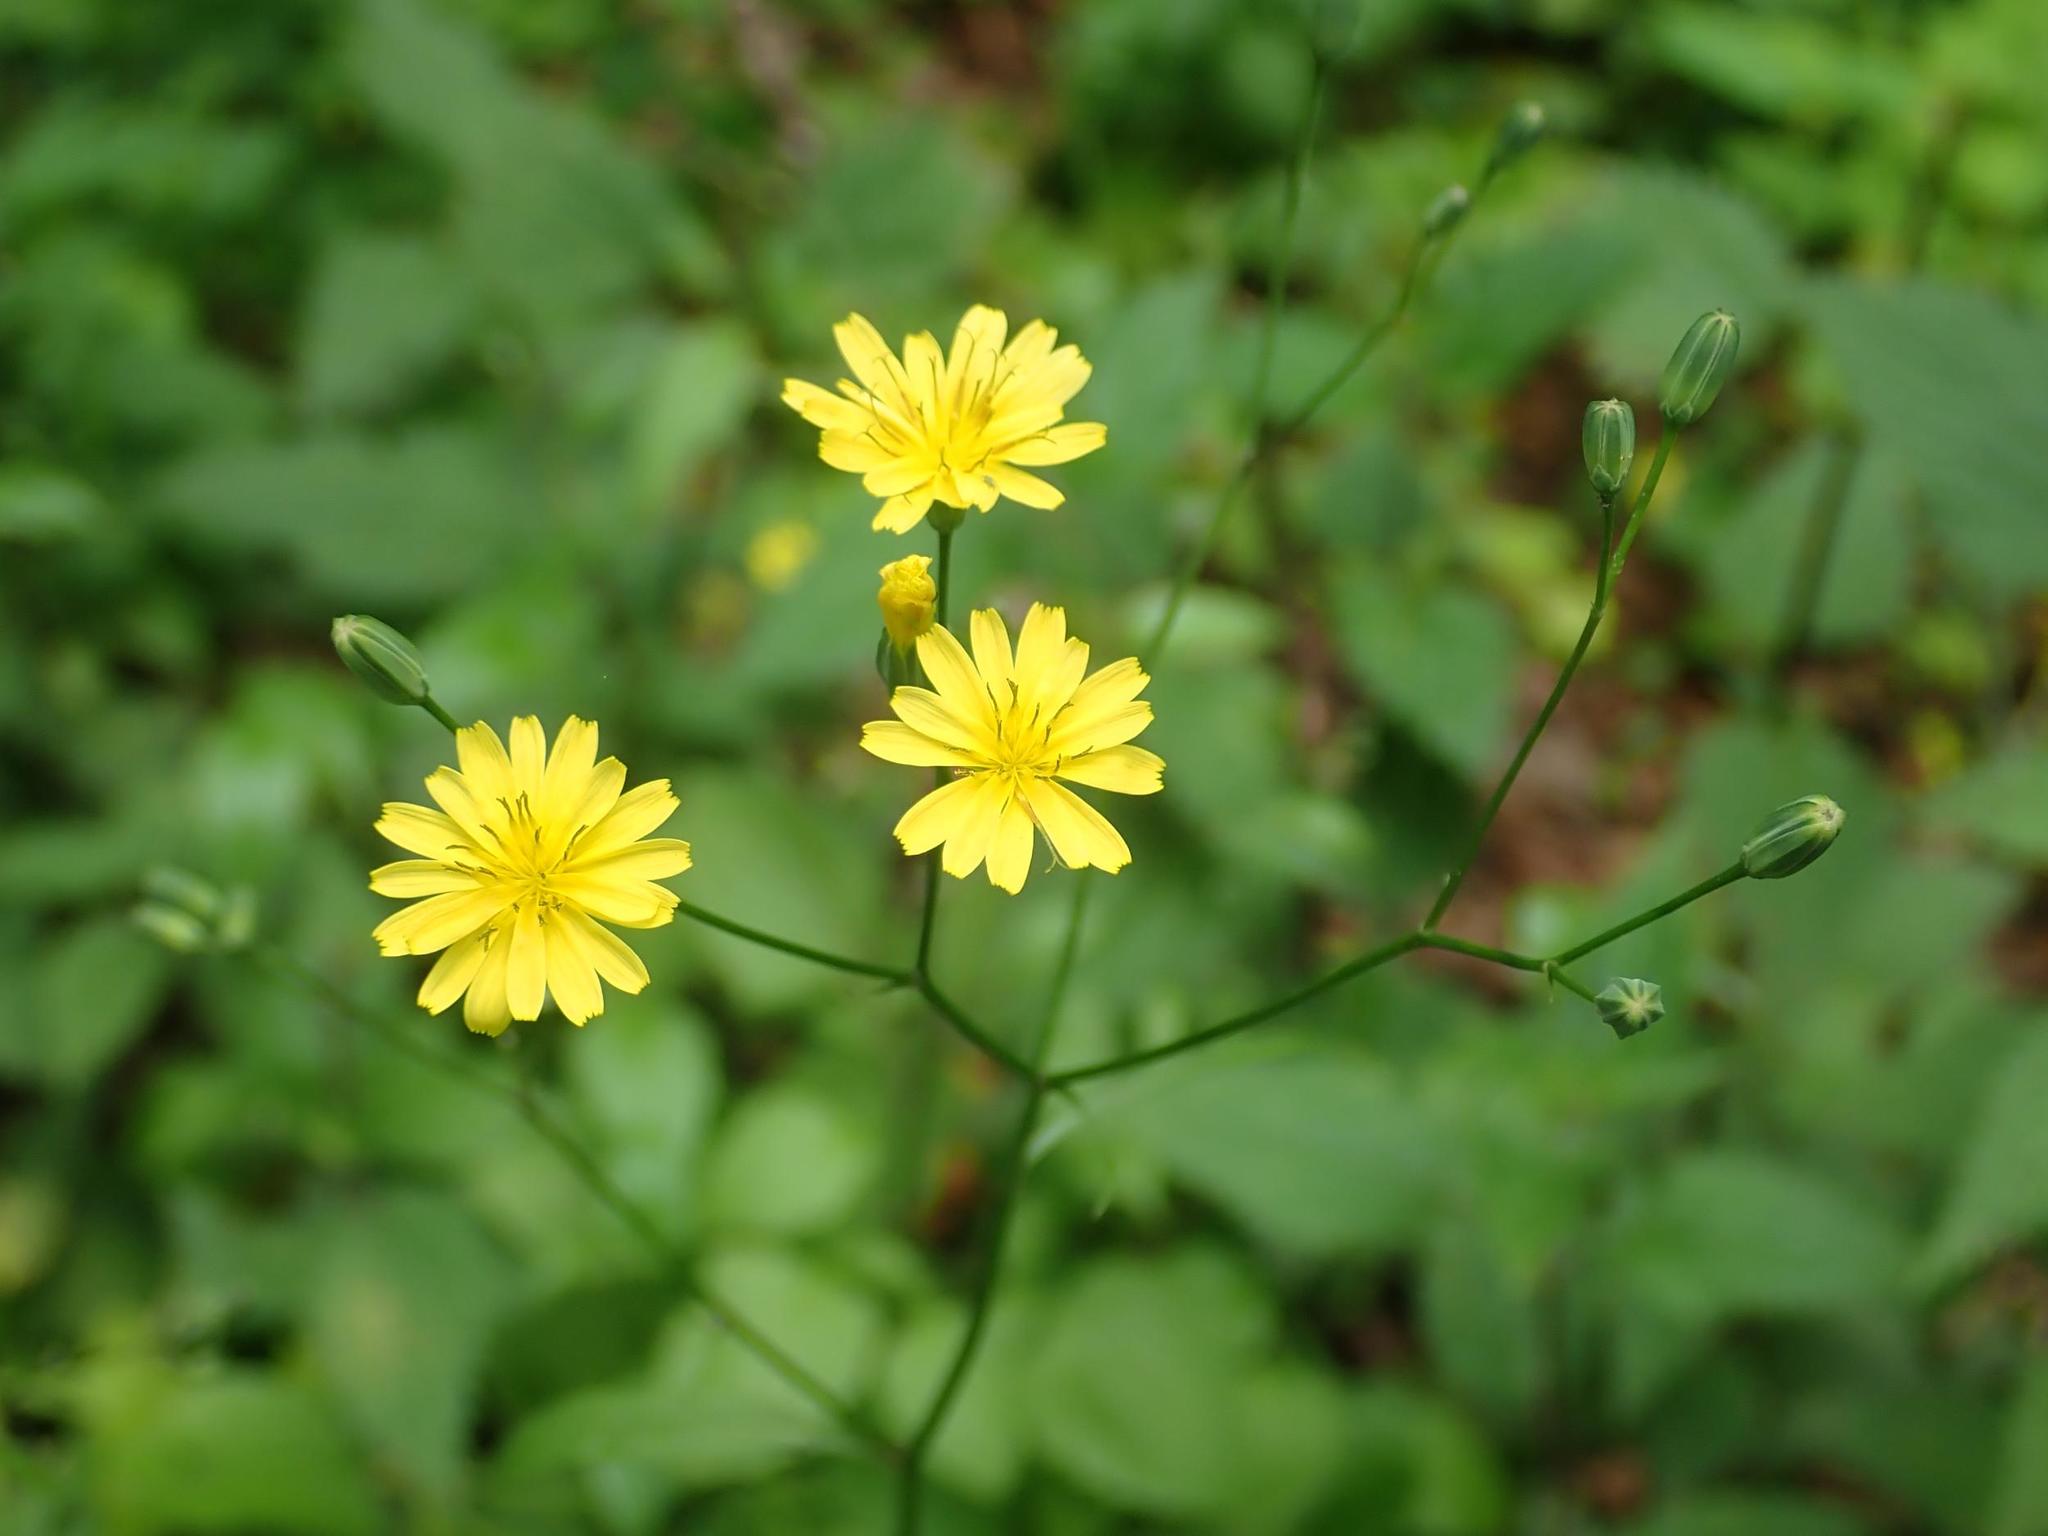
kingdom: Plantae
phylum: Tracheophyta
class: Magnoliopsida
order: Asterales
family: Asteraceae
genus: Lapsana
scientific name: Lapsana communis
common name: Nipplewort
